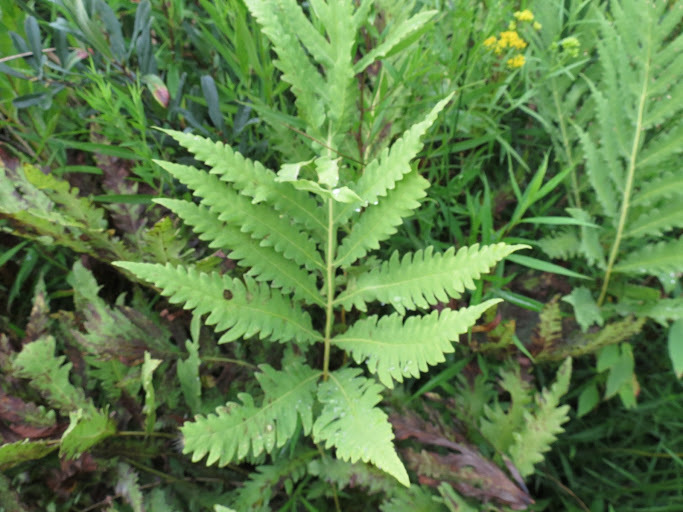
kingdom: Plantae
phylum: Tracheophyta
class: Polypodiopsida
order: Polypodiales
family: Onocleaceae
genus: Onoclea
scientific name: Onoclea sensibilis
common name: Sensitive fern
